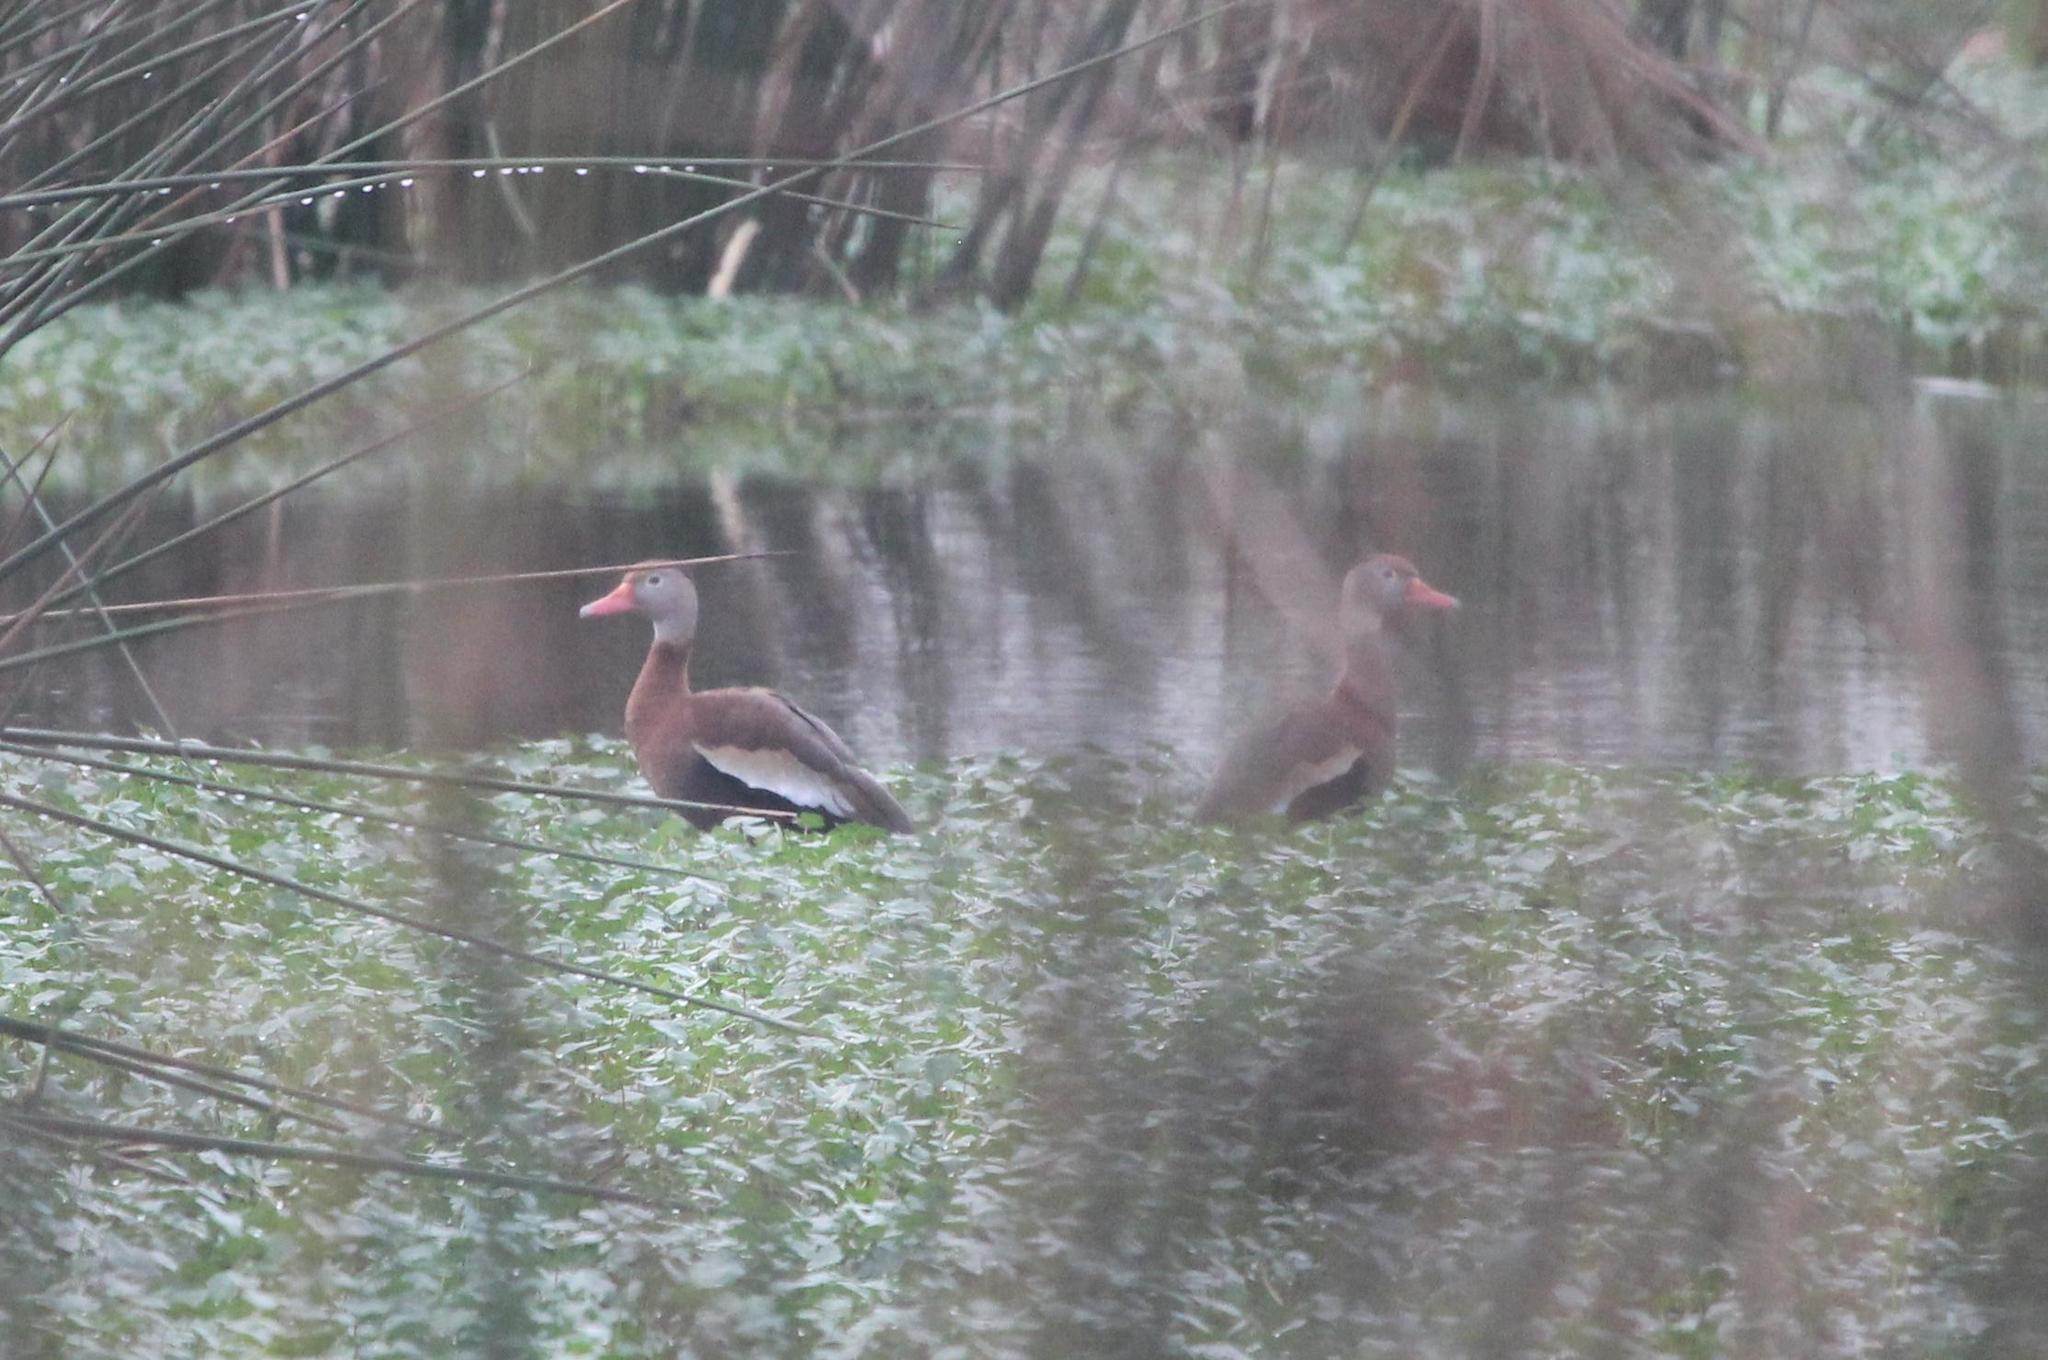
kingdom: Animalia
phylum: Chordata
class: Aves
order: Anseriformes
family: Anatidae
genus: Dendrocygna
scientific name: Dendrocygna autumnalis
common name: Black-bellied whistling duck
